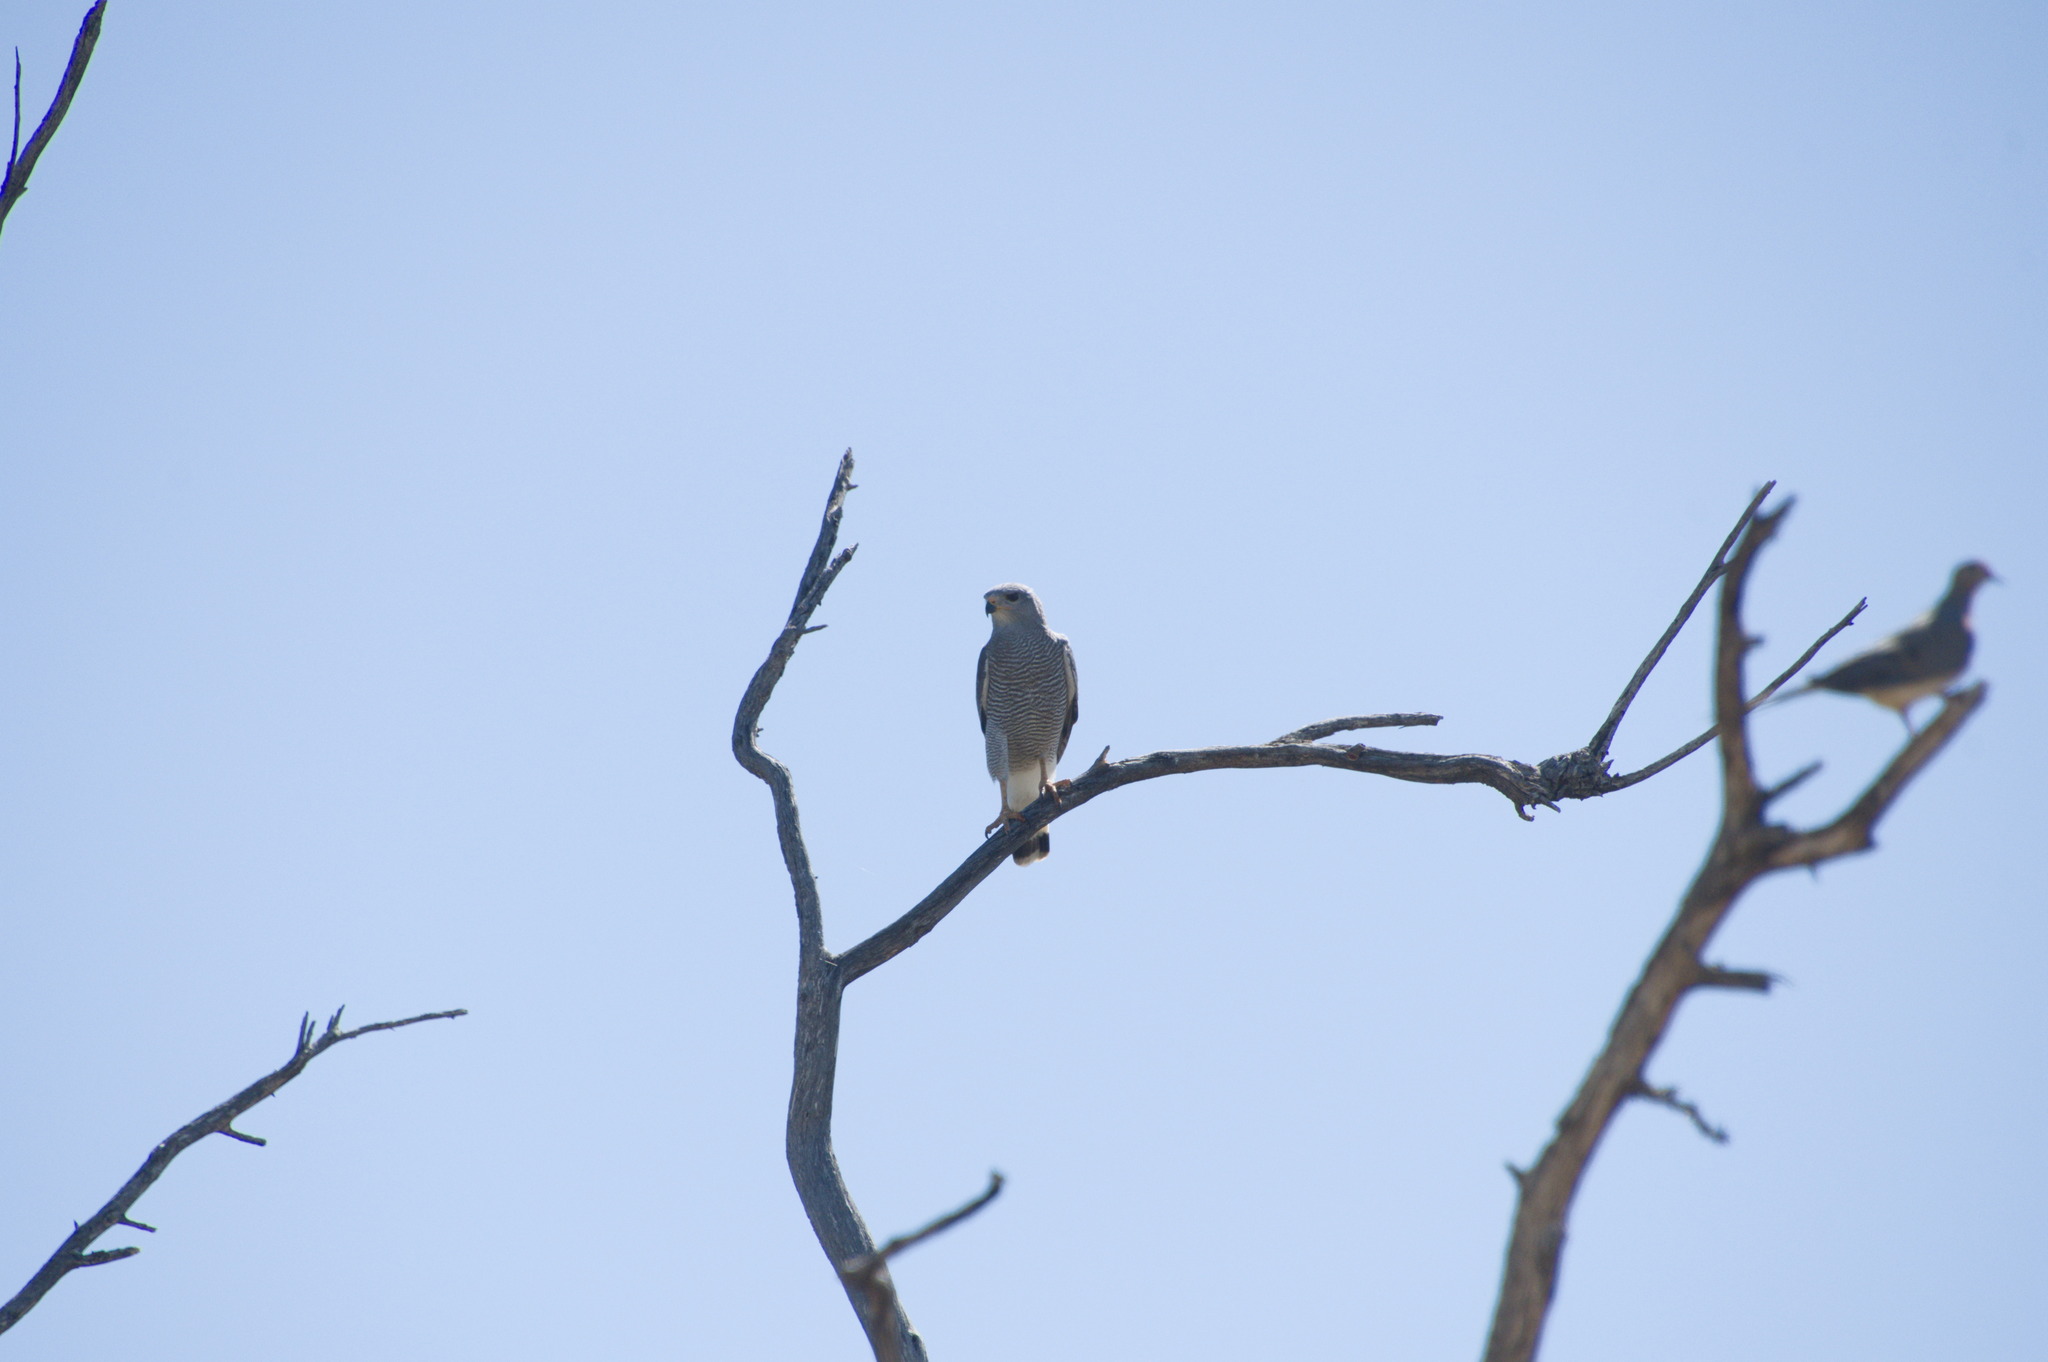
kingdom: Animalia
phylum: Chordata
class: Aves
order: Accipitriformes
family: Accipitridae
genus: Buteo
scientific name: Buteo nitidus
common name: Grey-lined hawk
